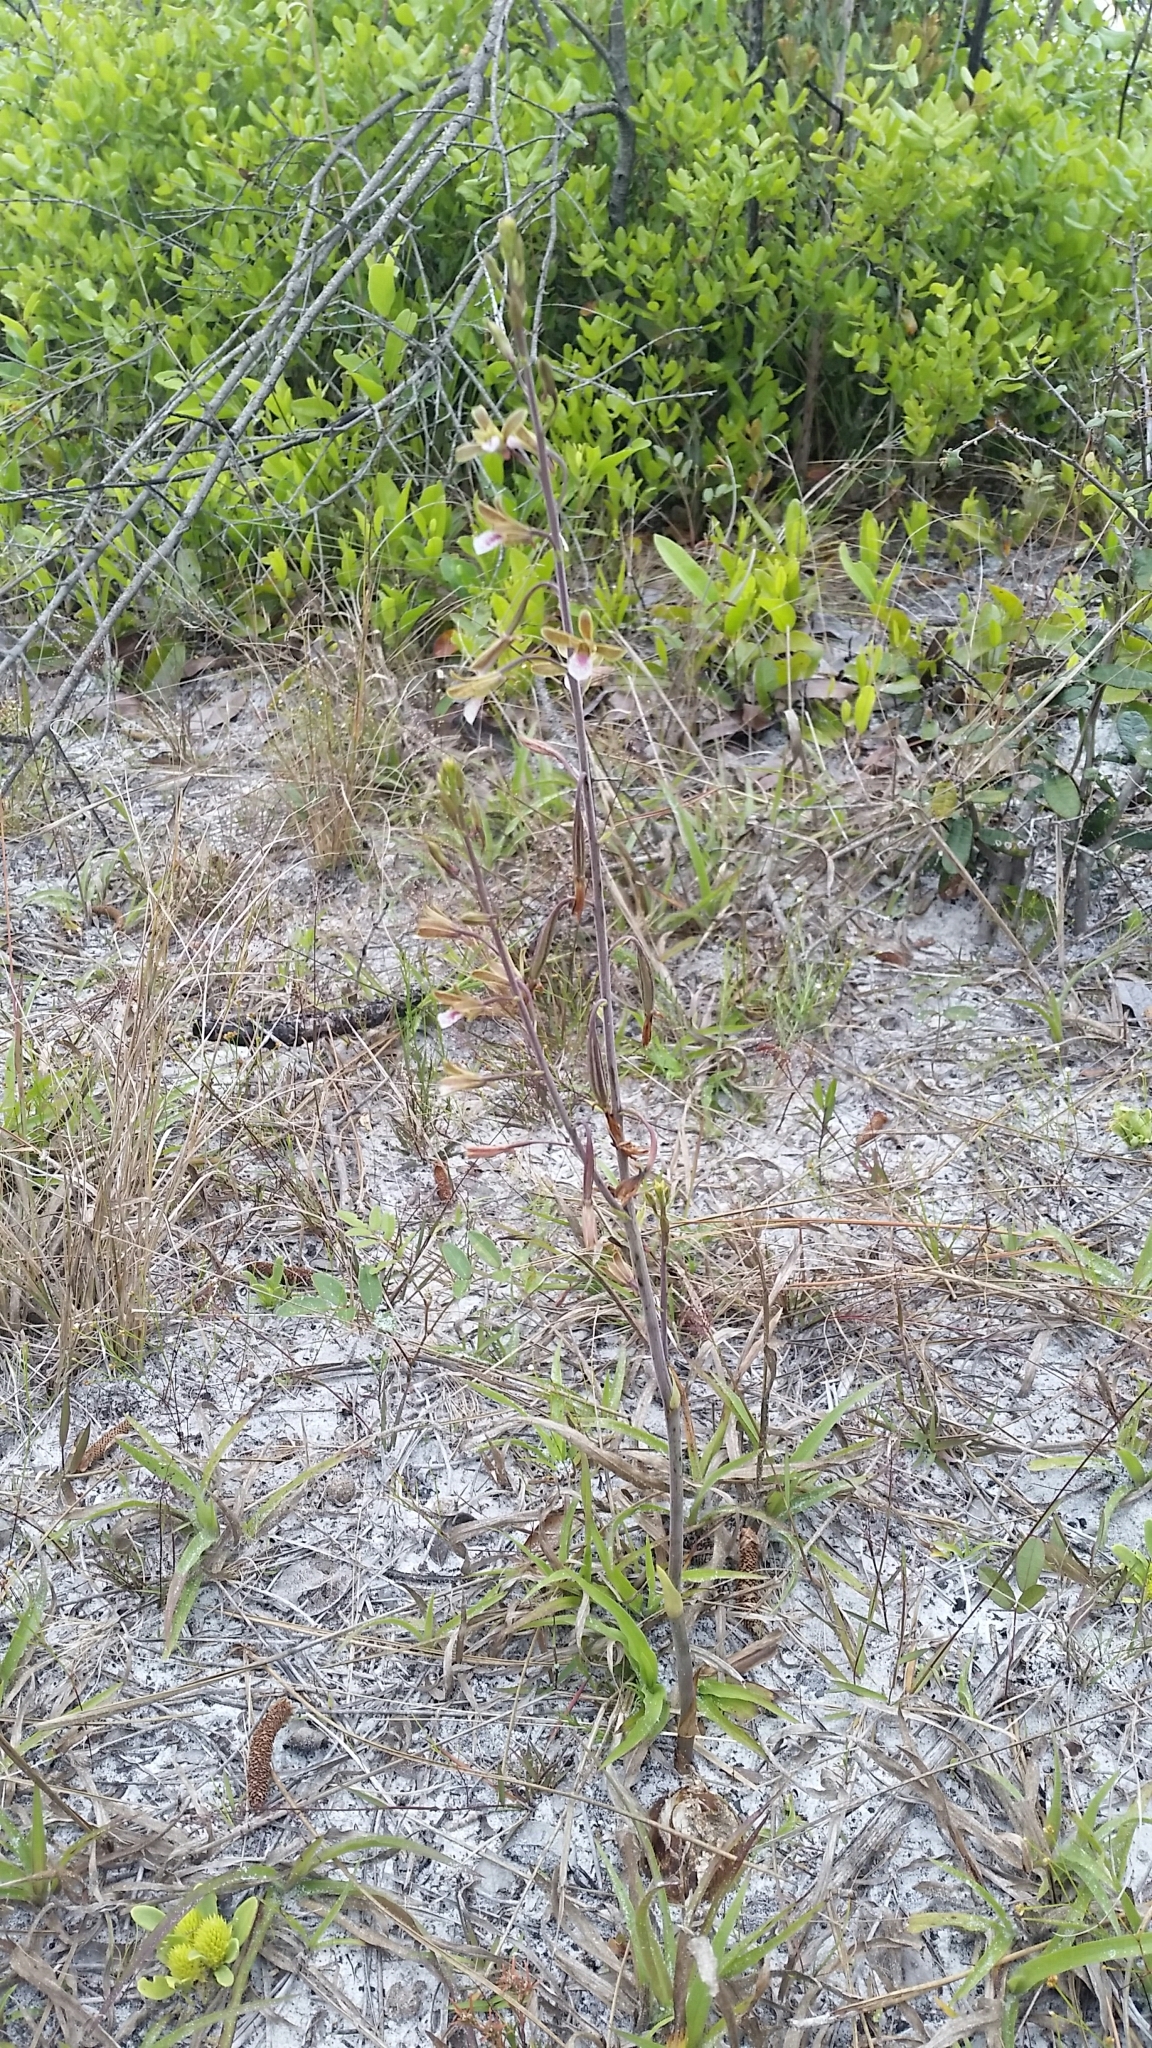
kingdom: Plantae
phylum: Tracheophyta
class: Liliopsida
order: Asparagales
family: Orchidaceae
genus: Eulophia
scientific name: Eulophia graminea
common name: Orchid
